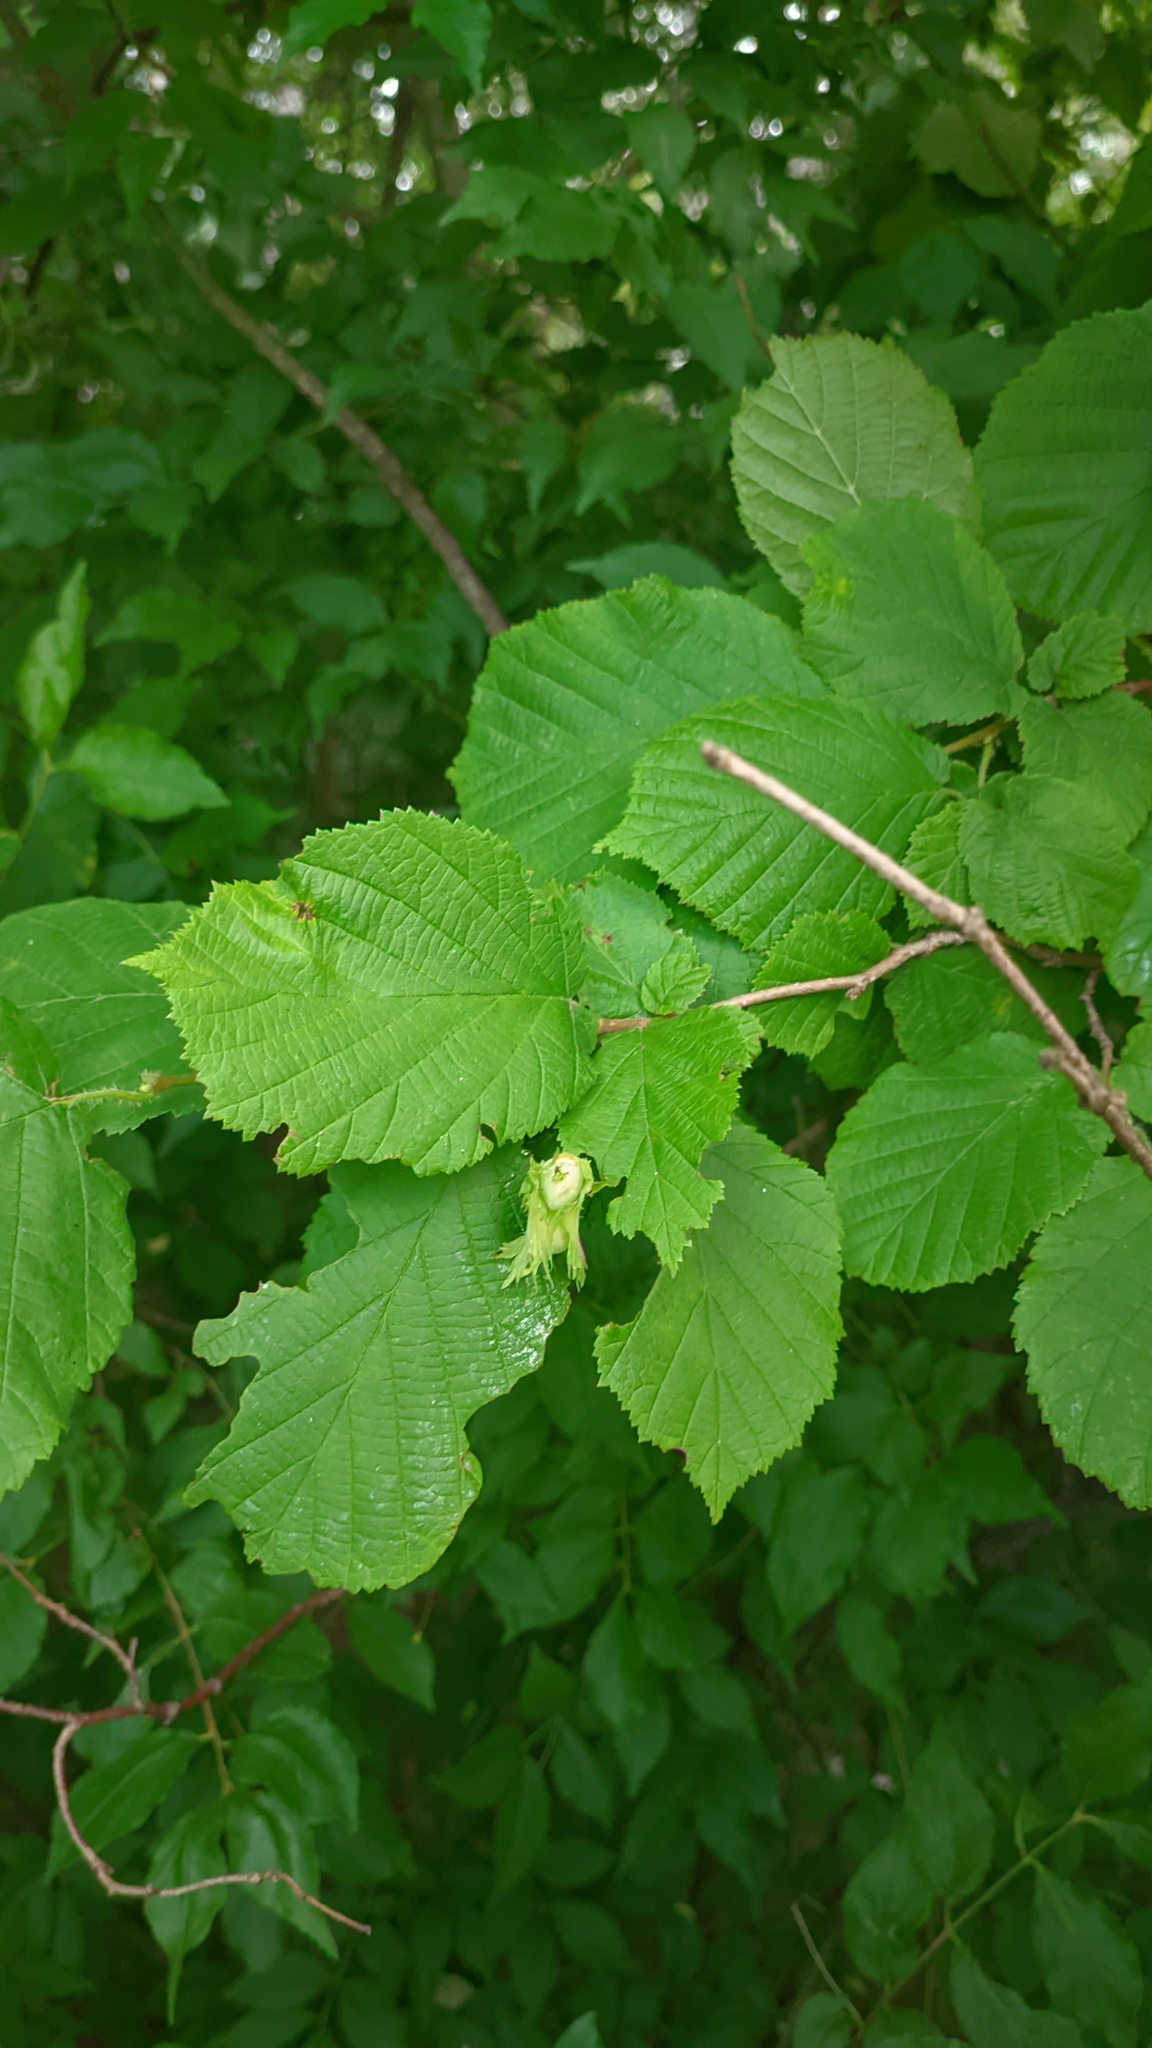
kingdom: Plantae
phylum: Tracheophyta
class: Magnoliopsida
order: Fagales
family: Betulaceae
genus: Corylus
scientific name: Corylus avellana
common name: European hazel
